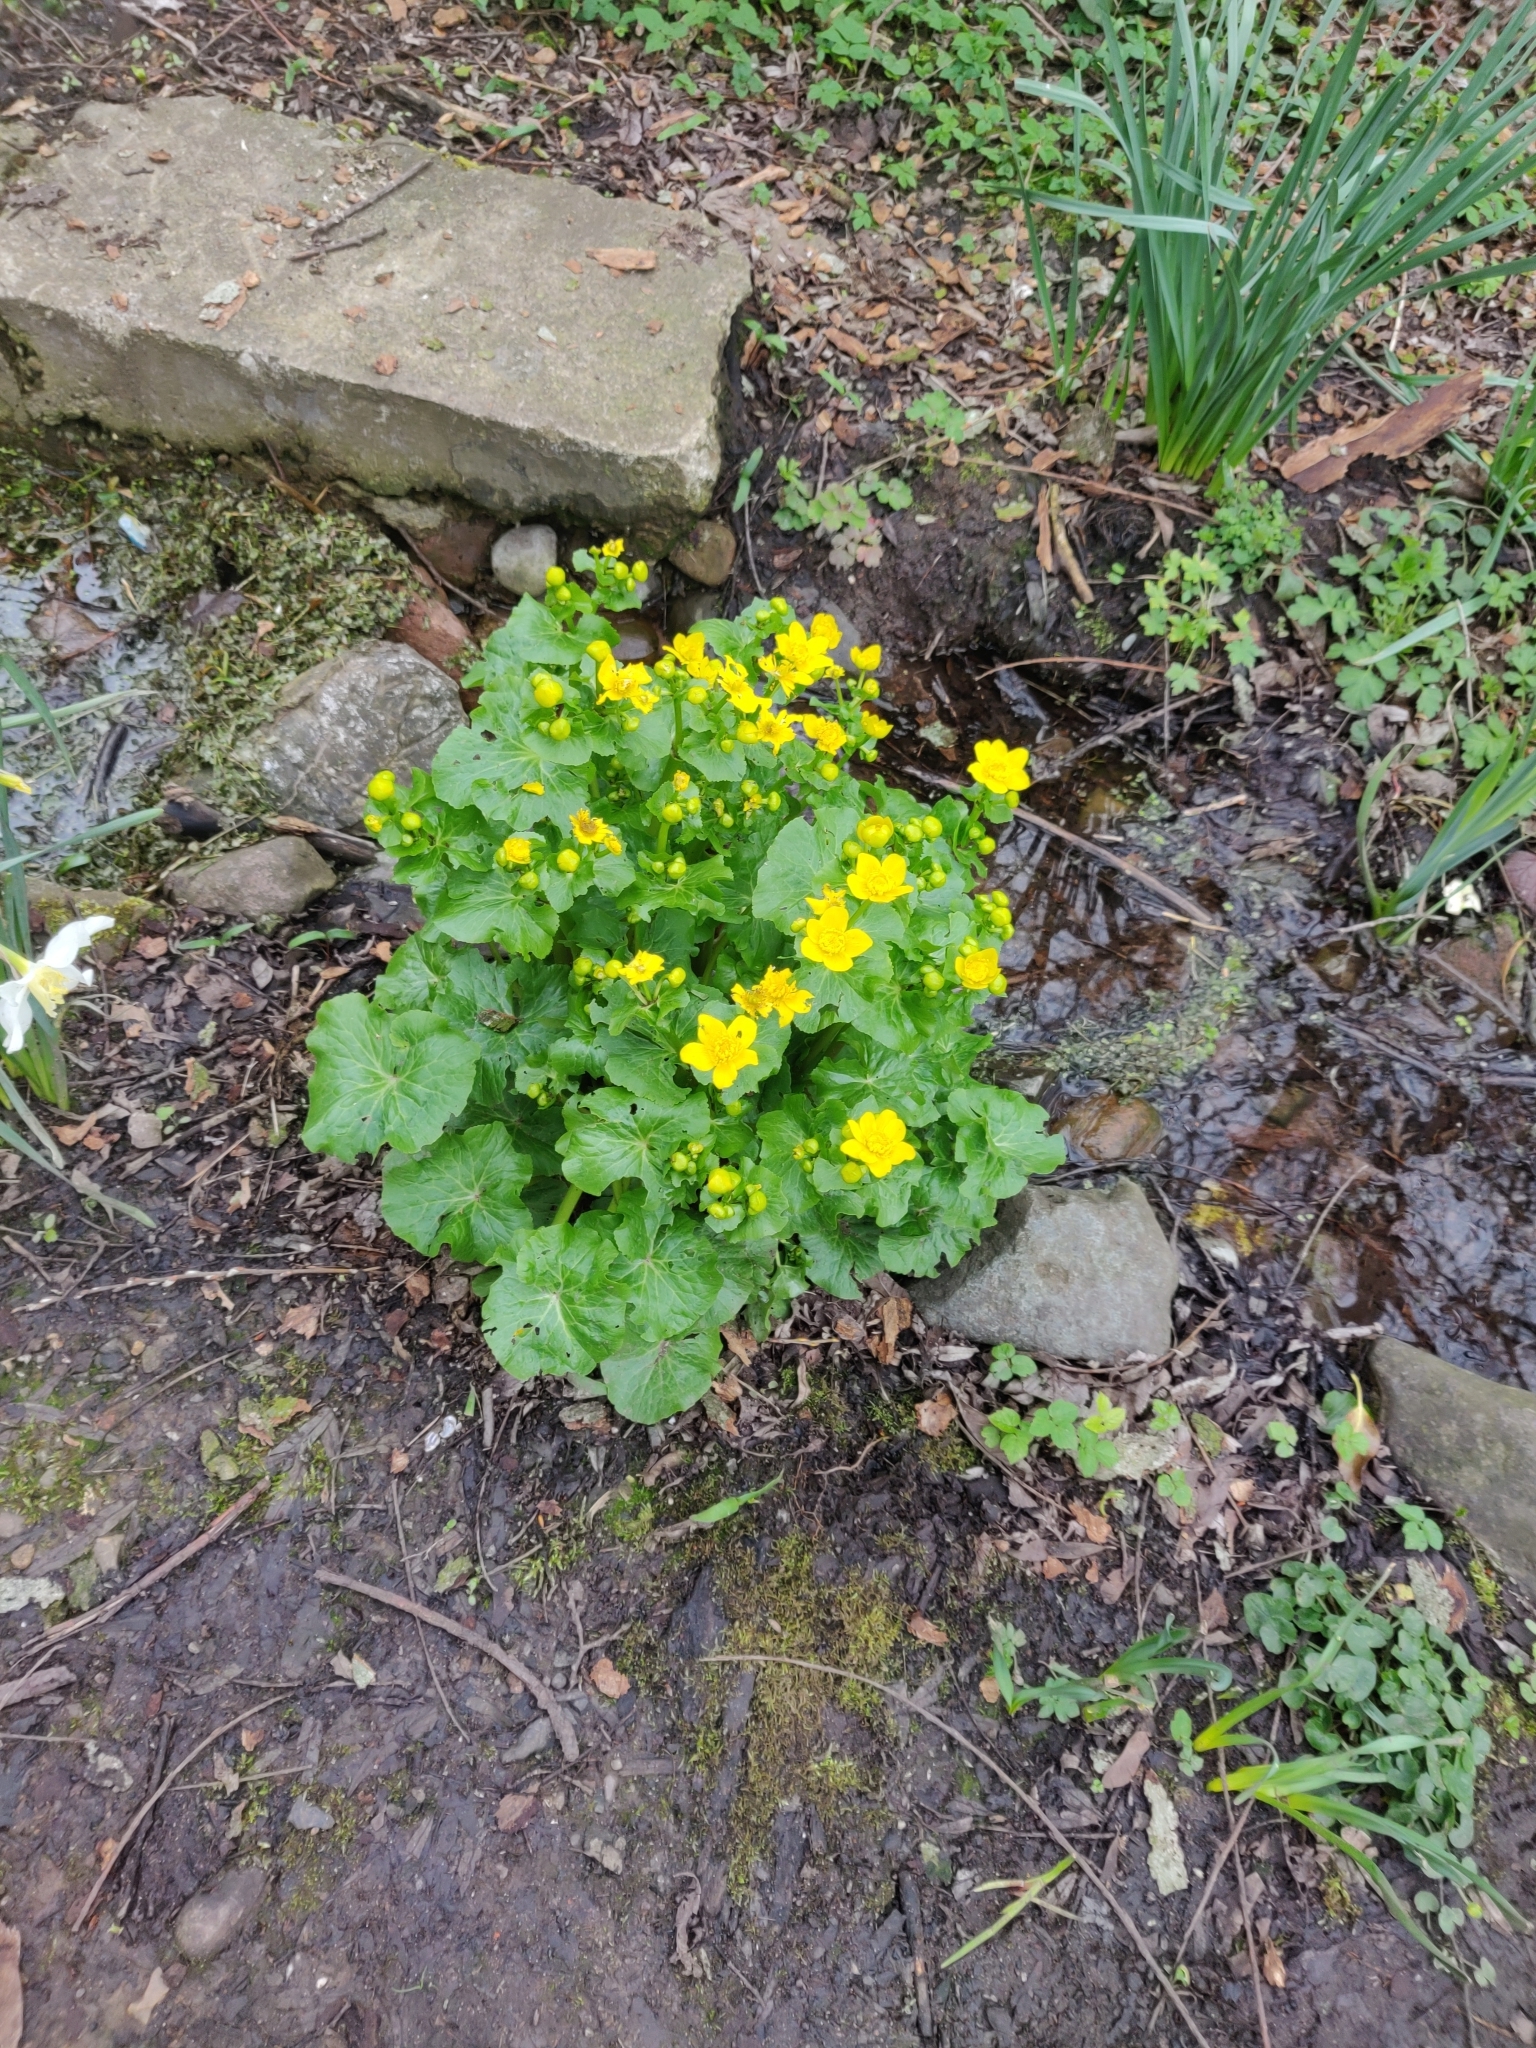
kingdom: Plantae
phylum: Tracheophyta
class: Magnoliopsida
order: Ranunculales
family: Ranunculaceae
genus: Caltha
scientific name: Caltha palustris
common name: Marsh marigold
